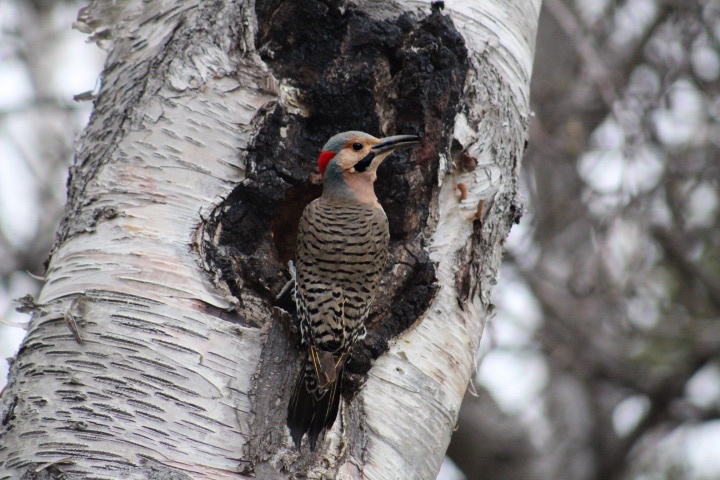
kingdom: Animalia
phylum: Chordata
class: Aves
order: Piciformes
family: Picidae
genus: Colaptes
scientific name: Colaptes auratus
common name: Northern flicker
